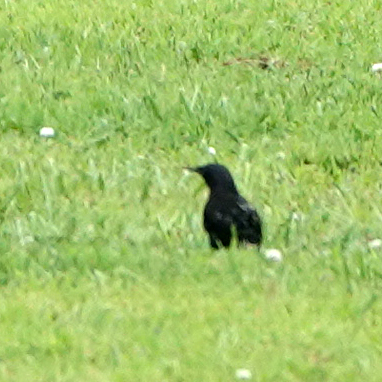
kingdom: Animalia
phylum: Chordata
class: Aves
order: Passeriformes
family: Sturnidae
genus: Sturnus
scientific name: Sturnus vulgaris
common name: Common starling
